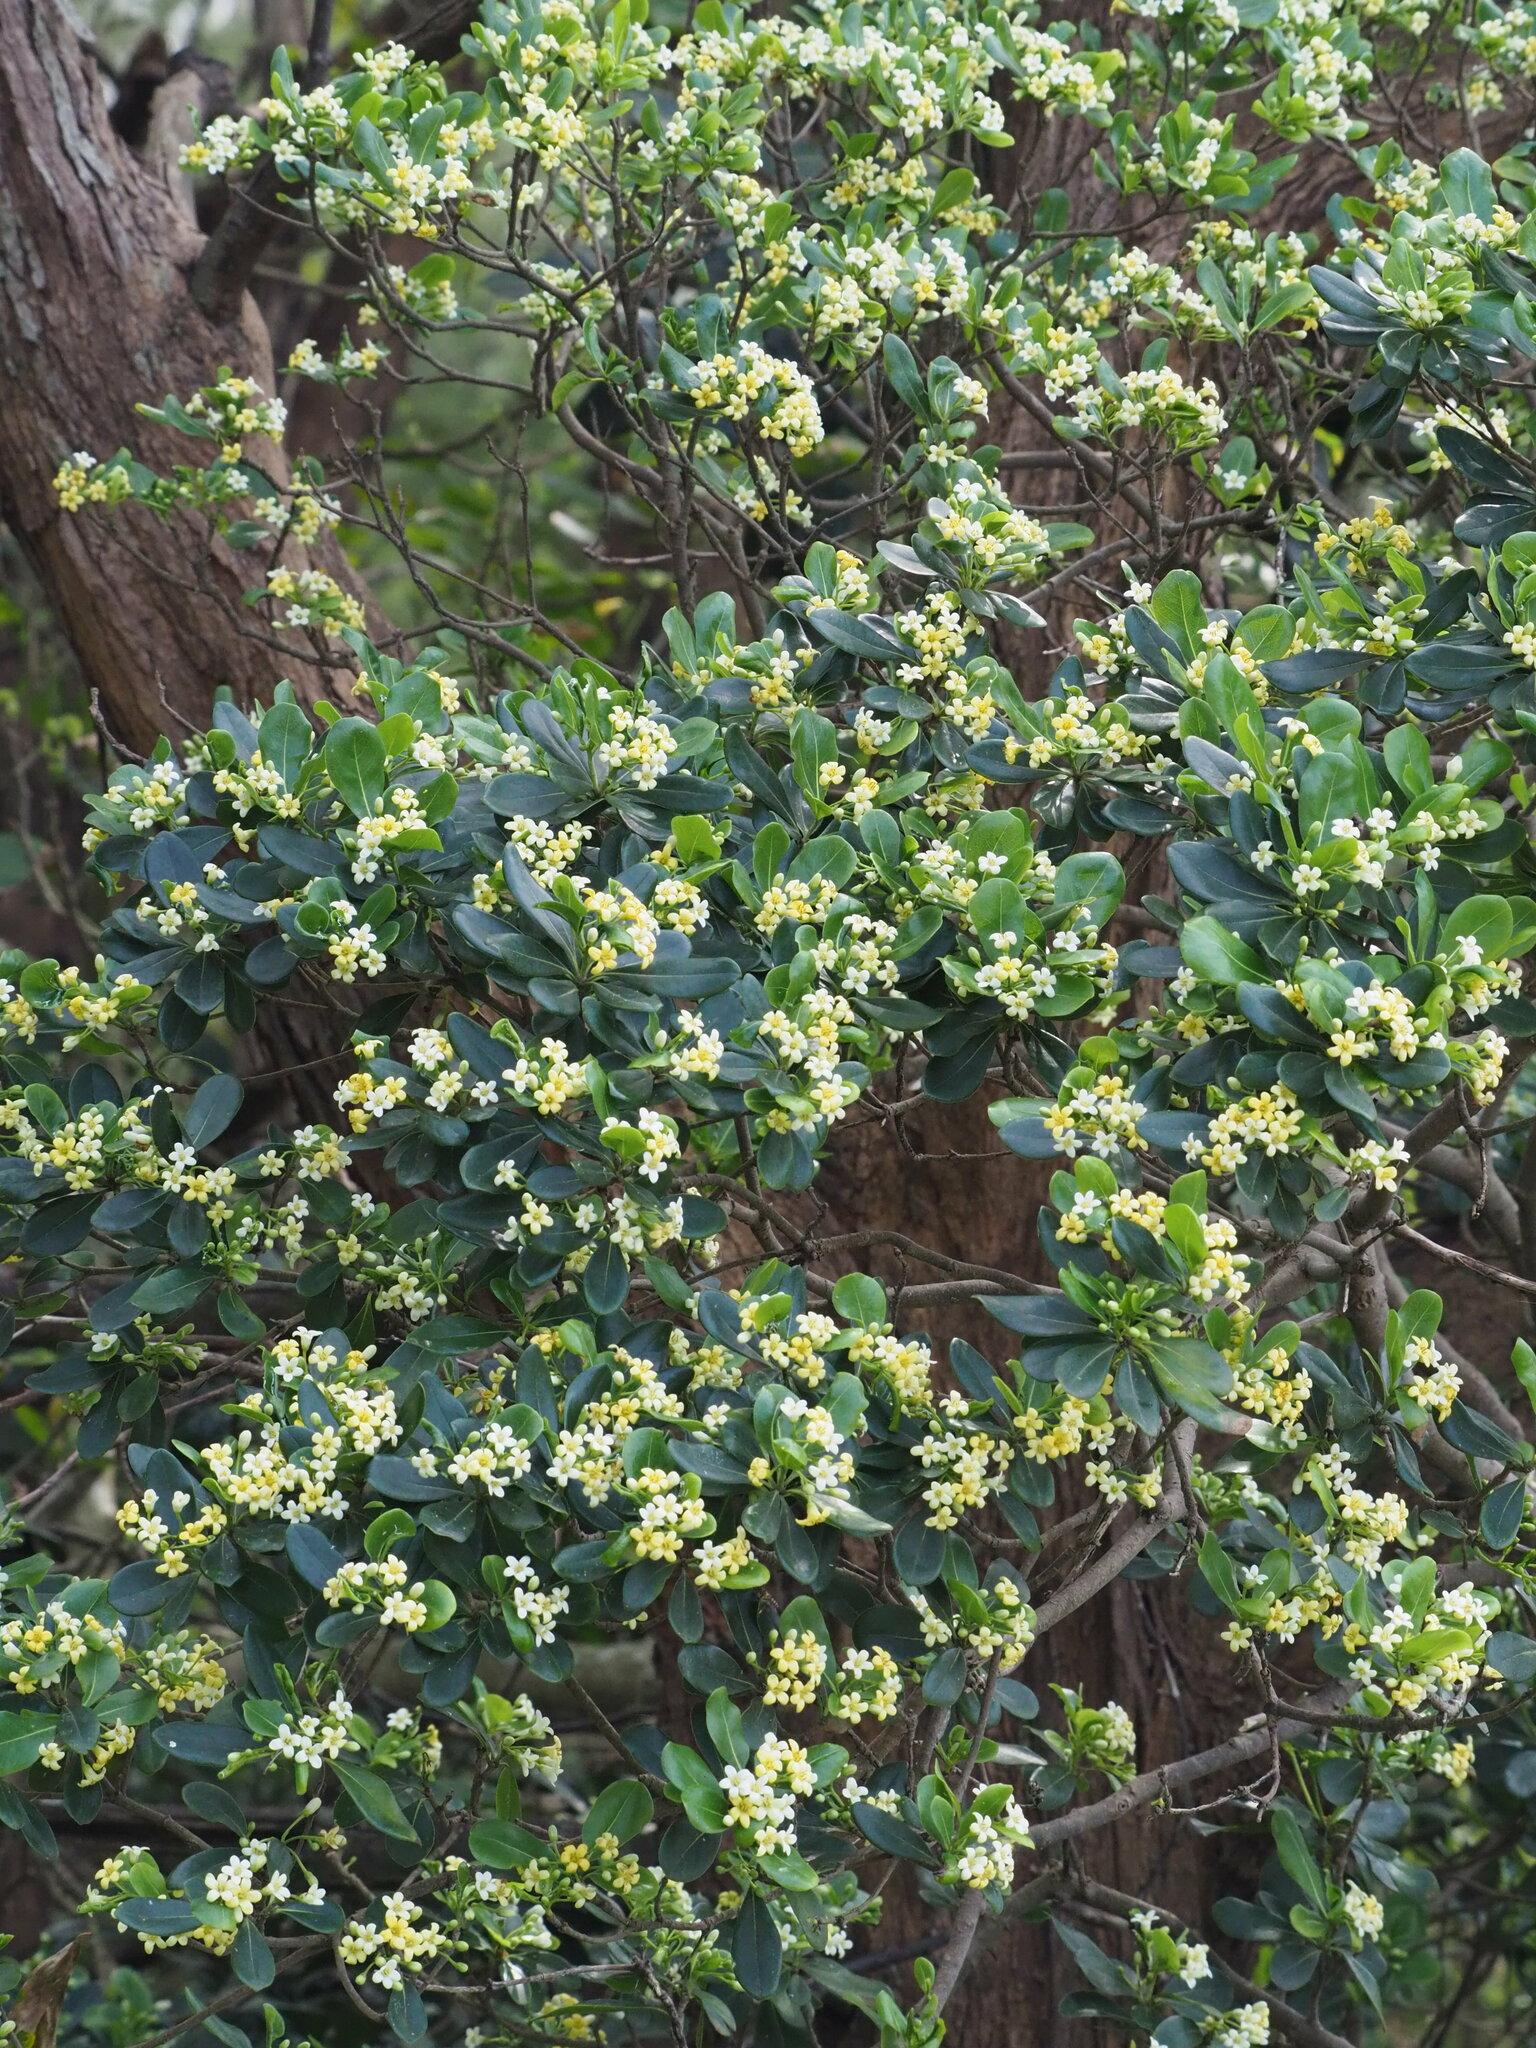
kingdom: Plantae
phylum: Tracheophyta
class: Magnoliopsida
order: Apiales
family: Pittosporaceae
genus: Pittosporum
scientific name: Pittosporum tobira
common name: Japanese cheesewood
